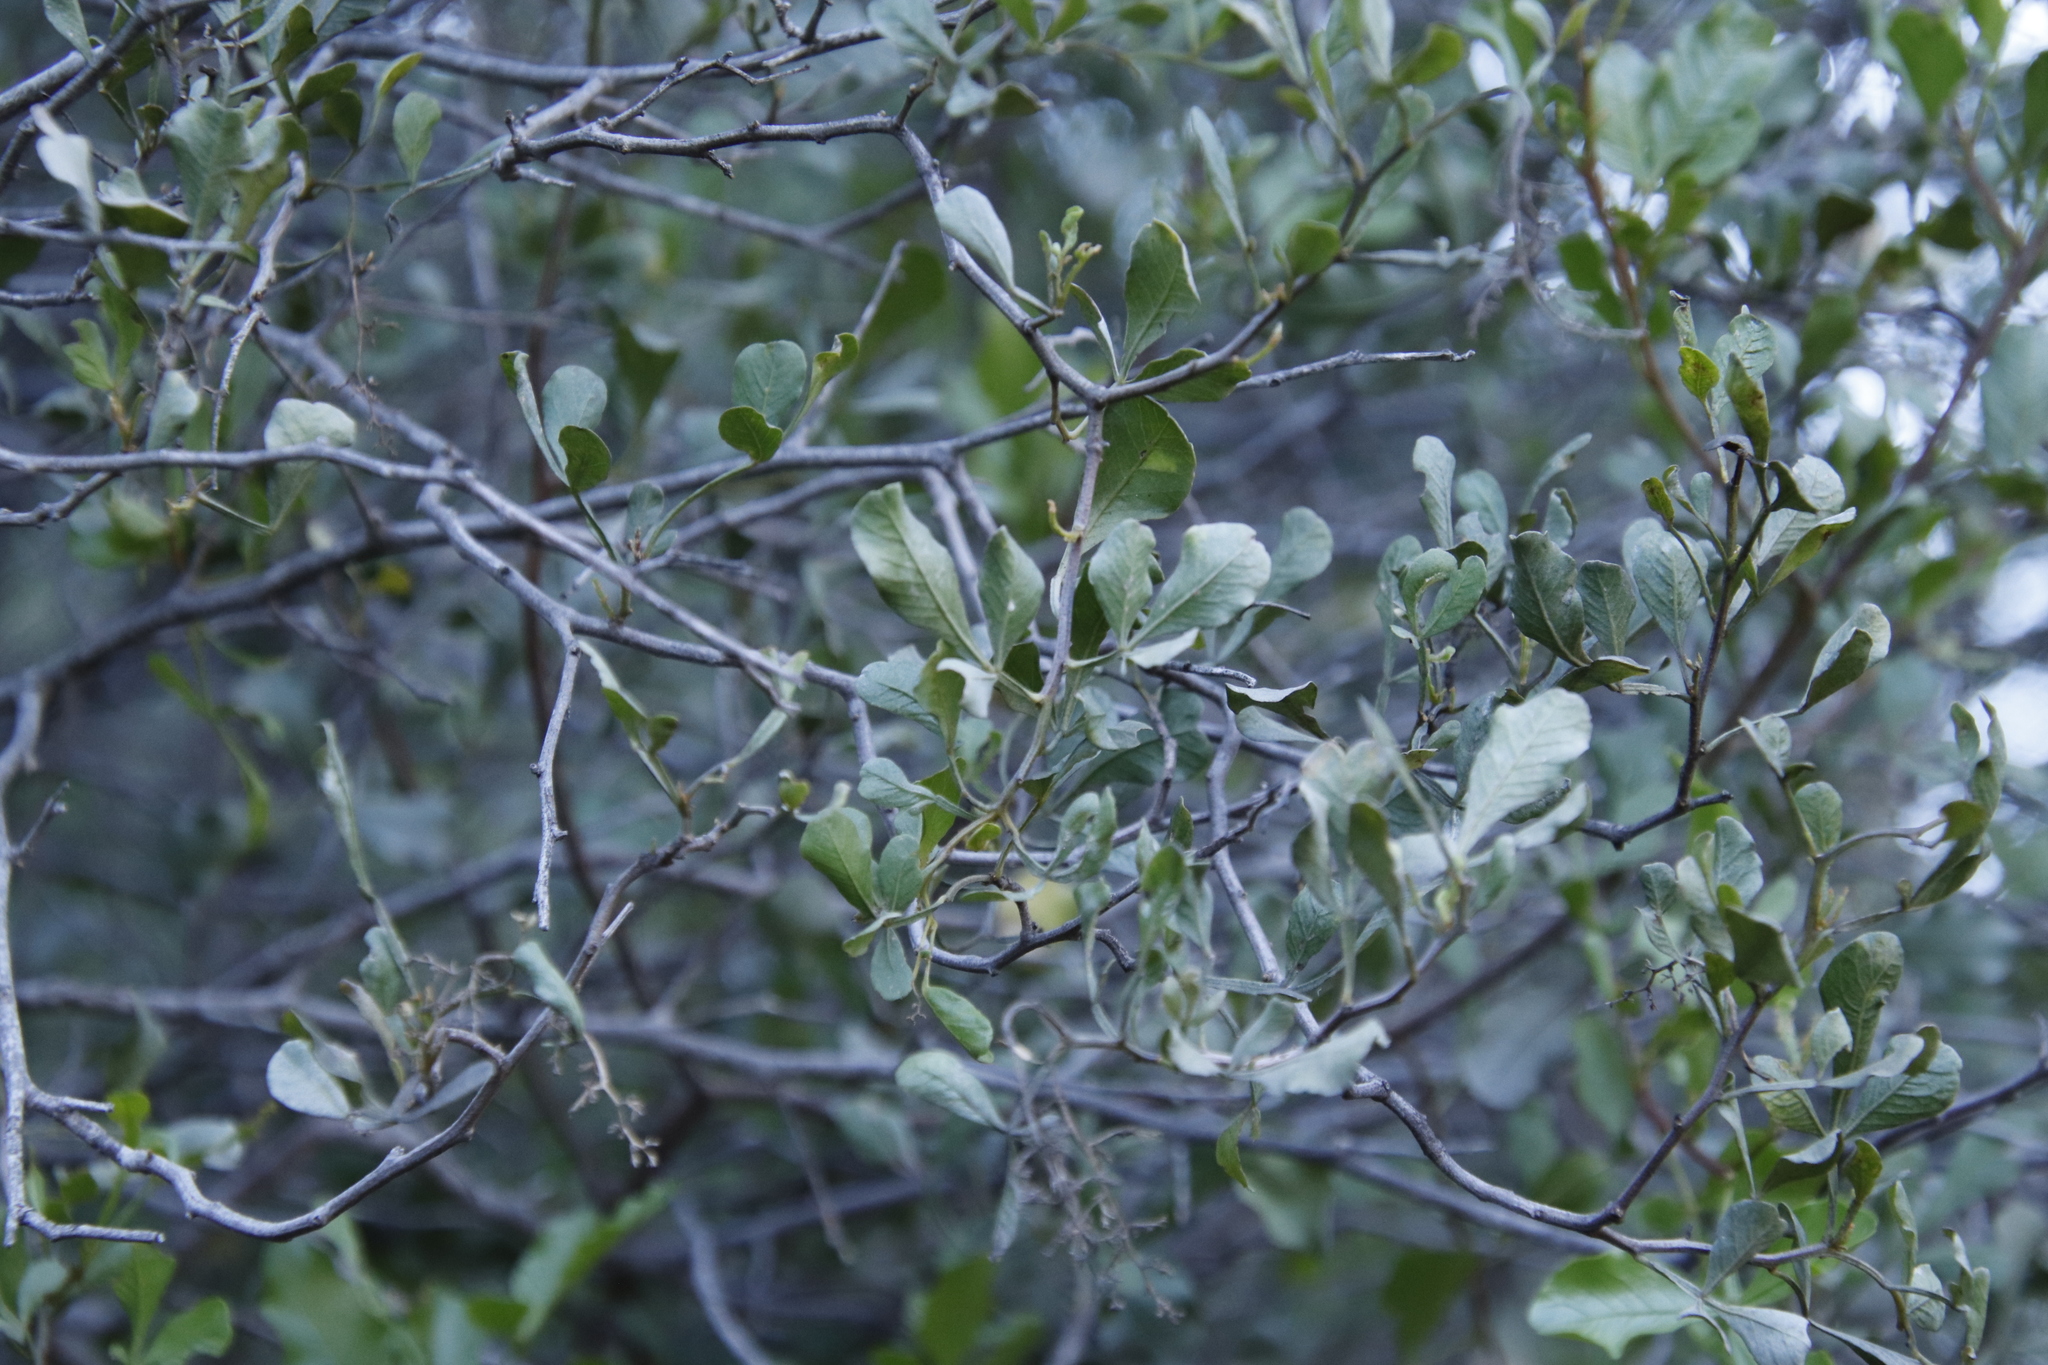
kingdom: Plantae
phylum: Tracheophyta
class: Magnoliopsida
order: Sapindales
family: Anacardiaceae
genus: Searsia
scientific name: Searsia undulata
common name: Namaqua kunibush
